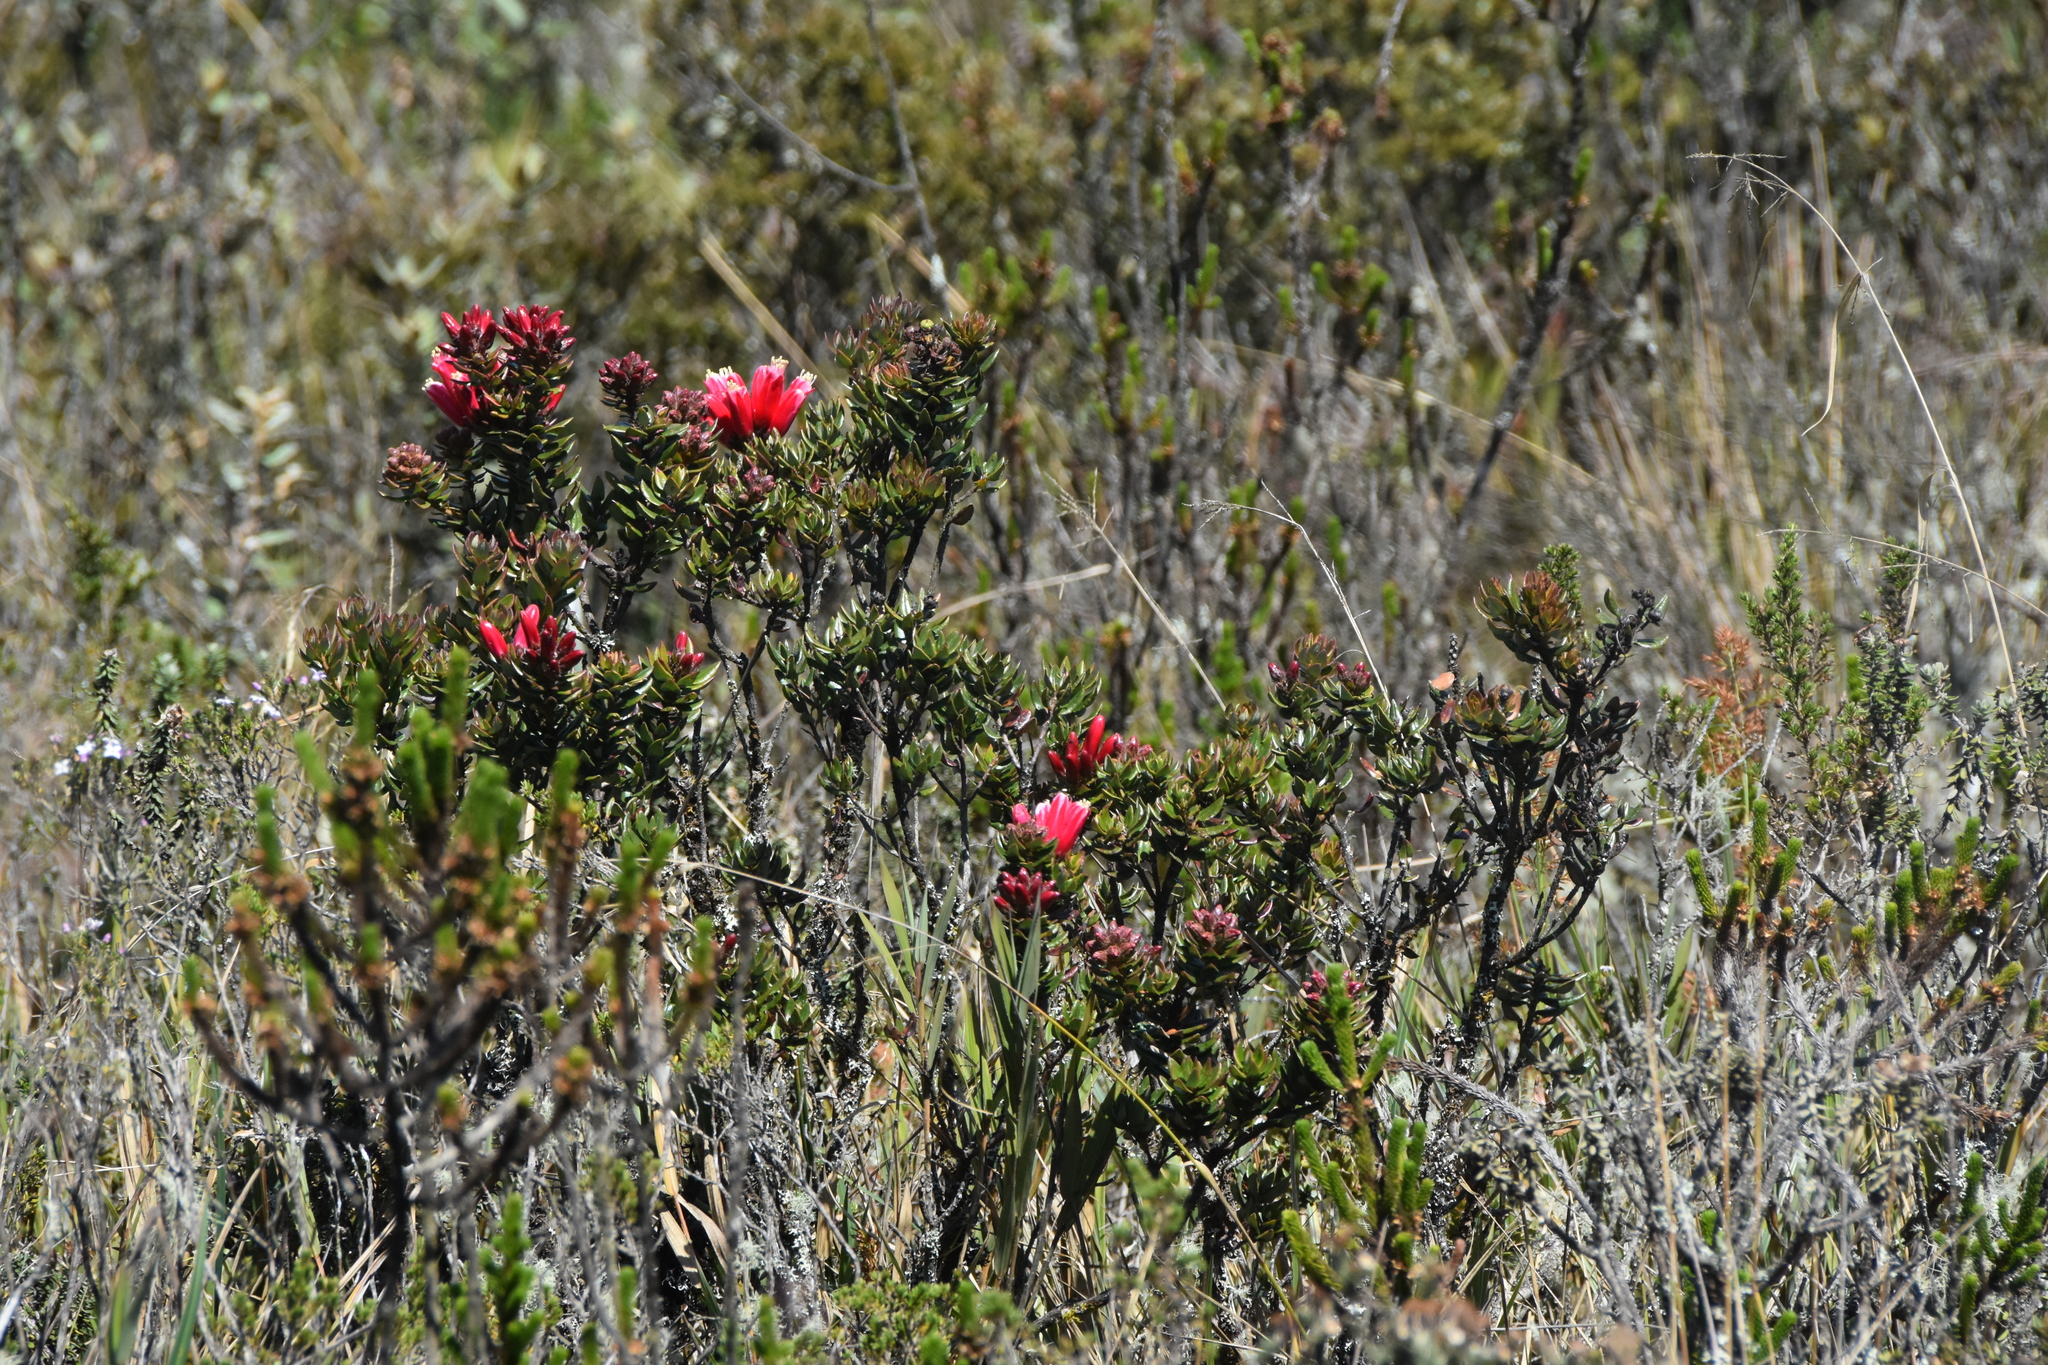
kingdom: Plantae
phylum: Tracheophyta
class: Magnoliopsida
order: Ericales
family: Ericaceae
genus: Bejaria
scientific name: Bejaria resinosa
